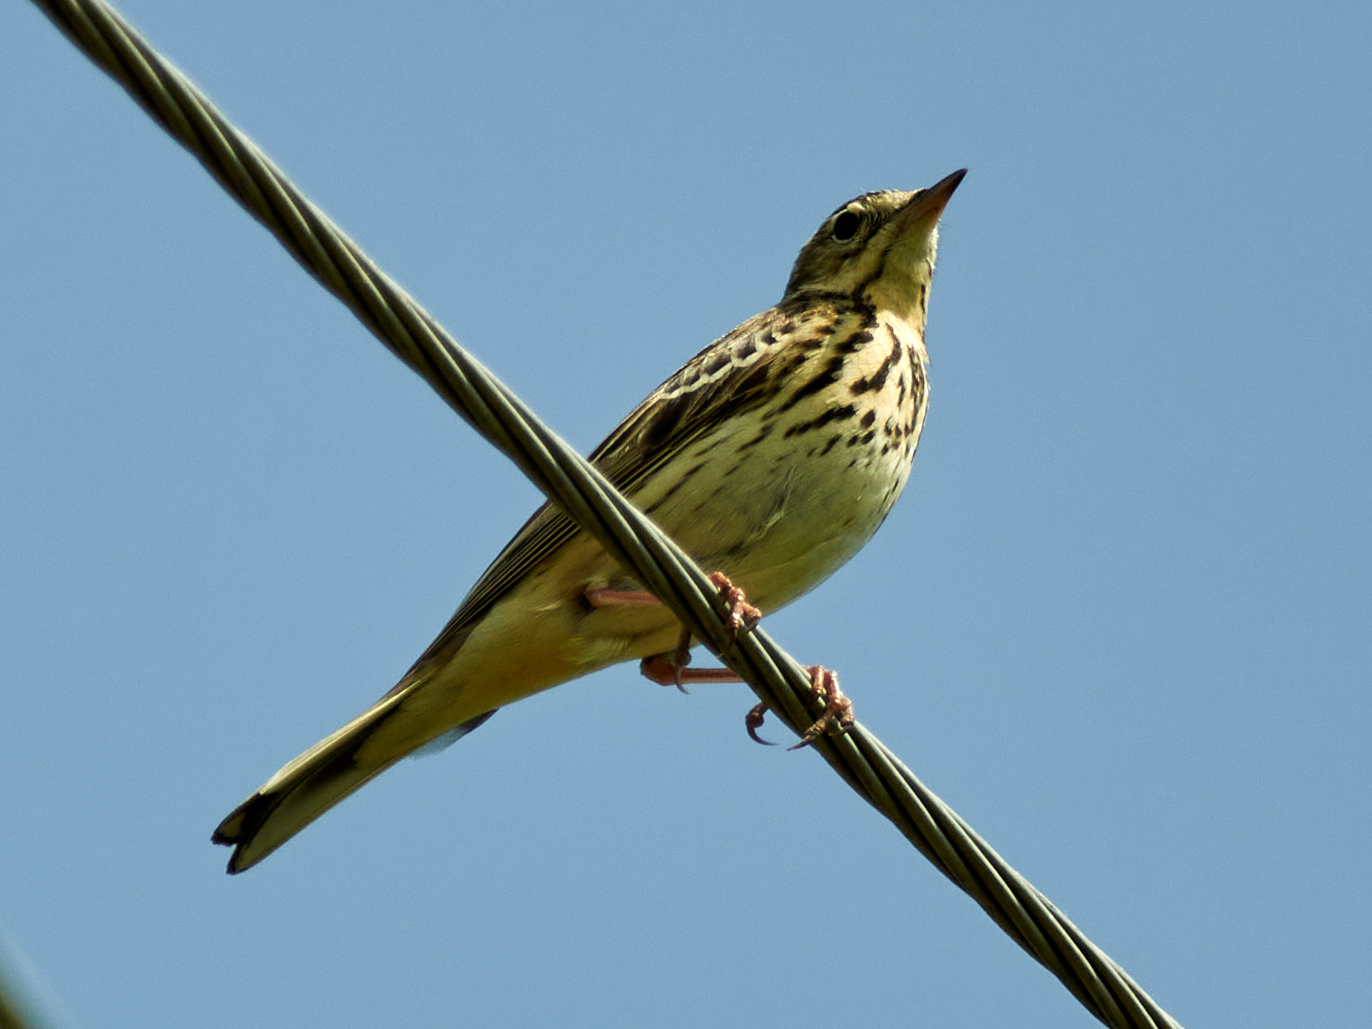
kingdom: Animalia
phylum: Chordata
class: Aves
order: Passeriformes
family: Motacillidae
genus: Anthus
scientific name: Anthus trivialis
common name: Tree pipit
